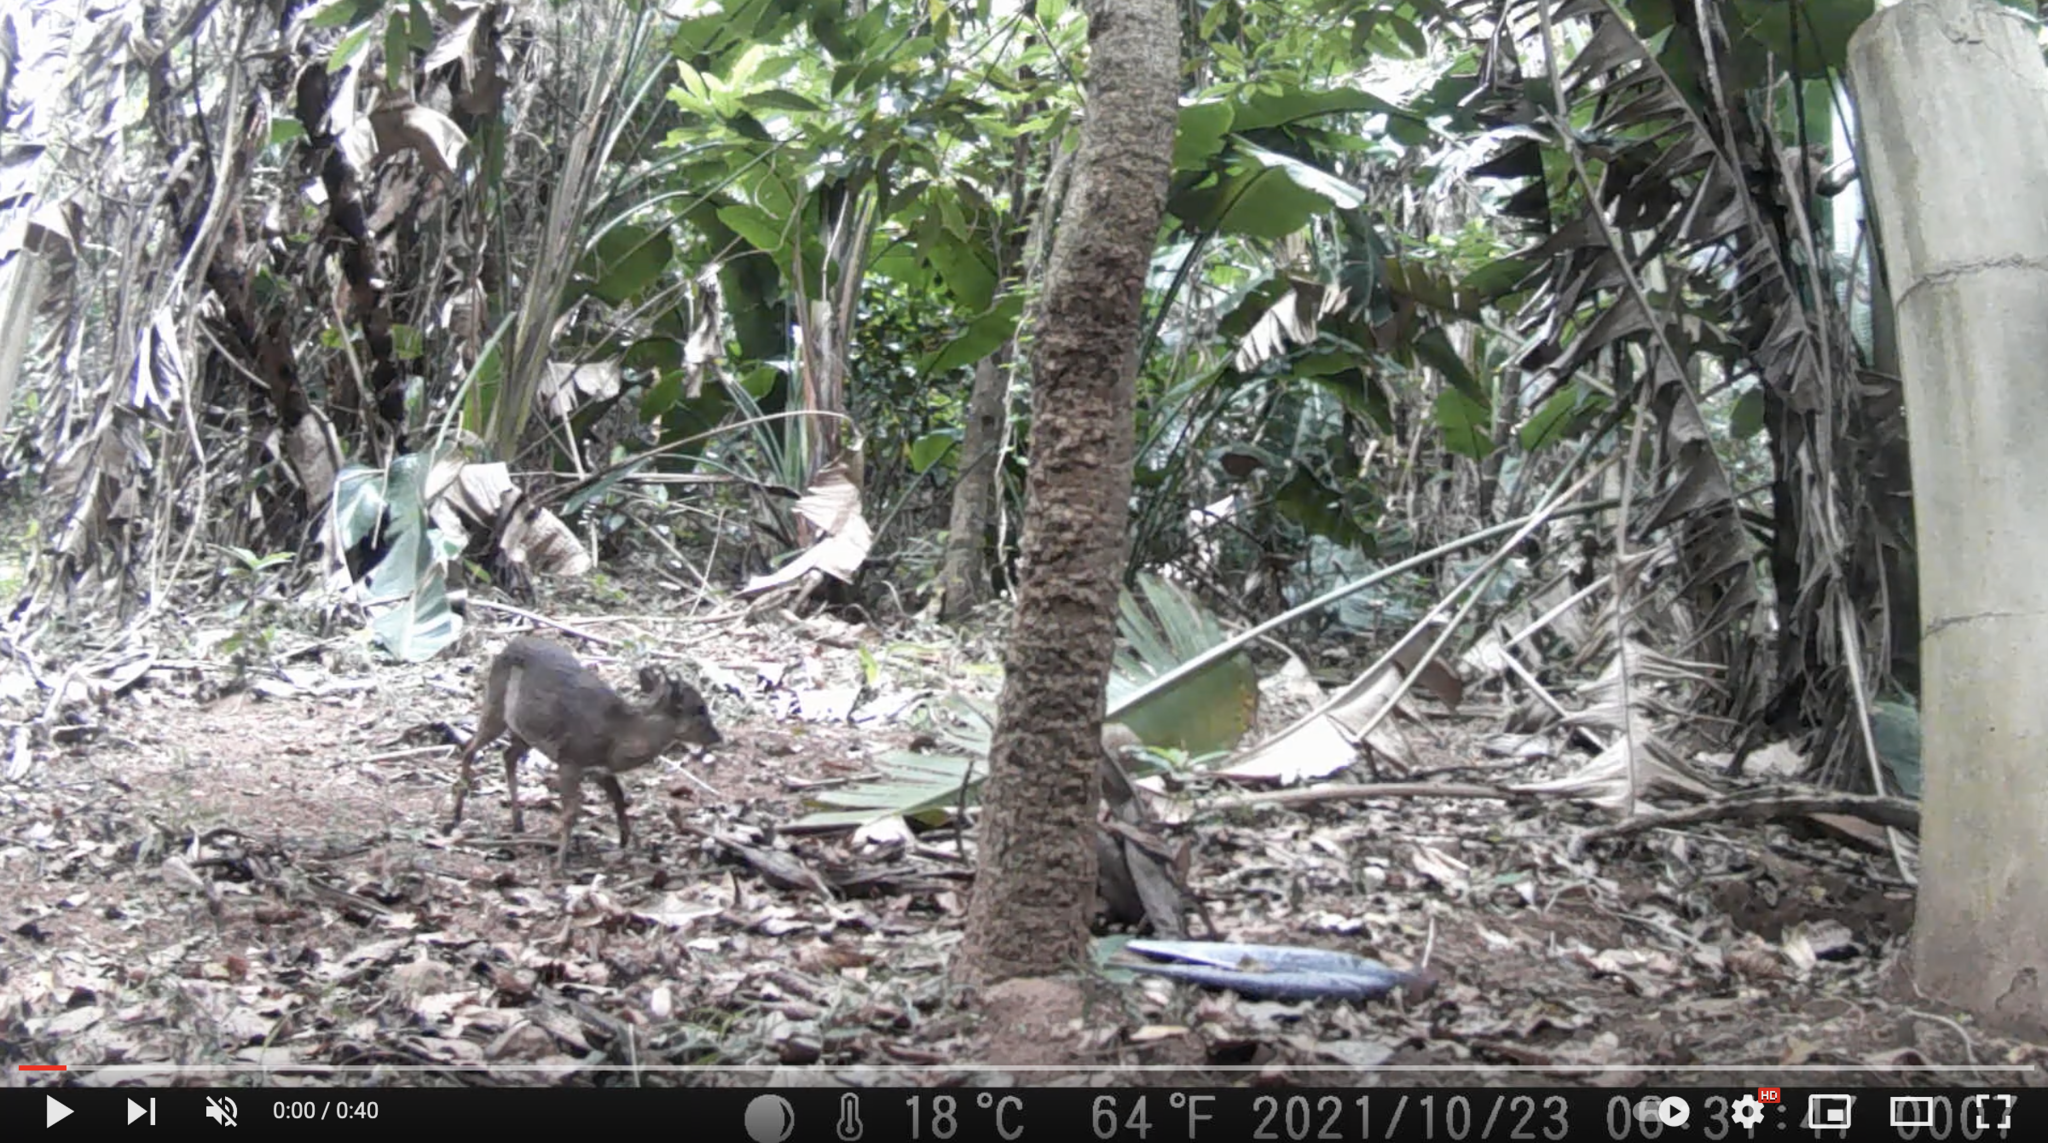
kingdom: Animalia
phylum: Chordata
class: Mammalia
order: Artiodactyla
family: Bovidae
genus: Philantomba
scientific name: Philantomba monticola
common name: Blue duiker
